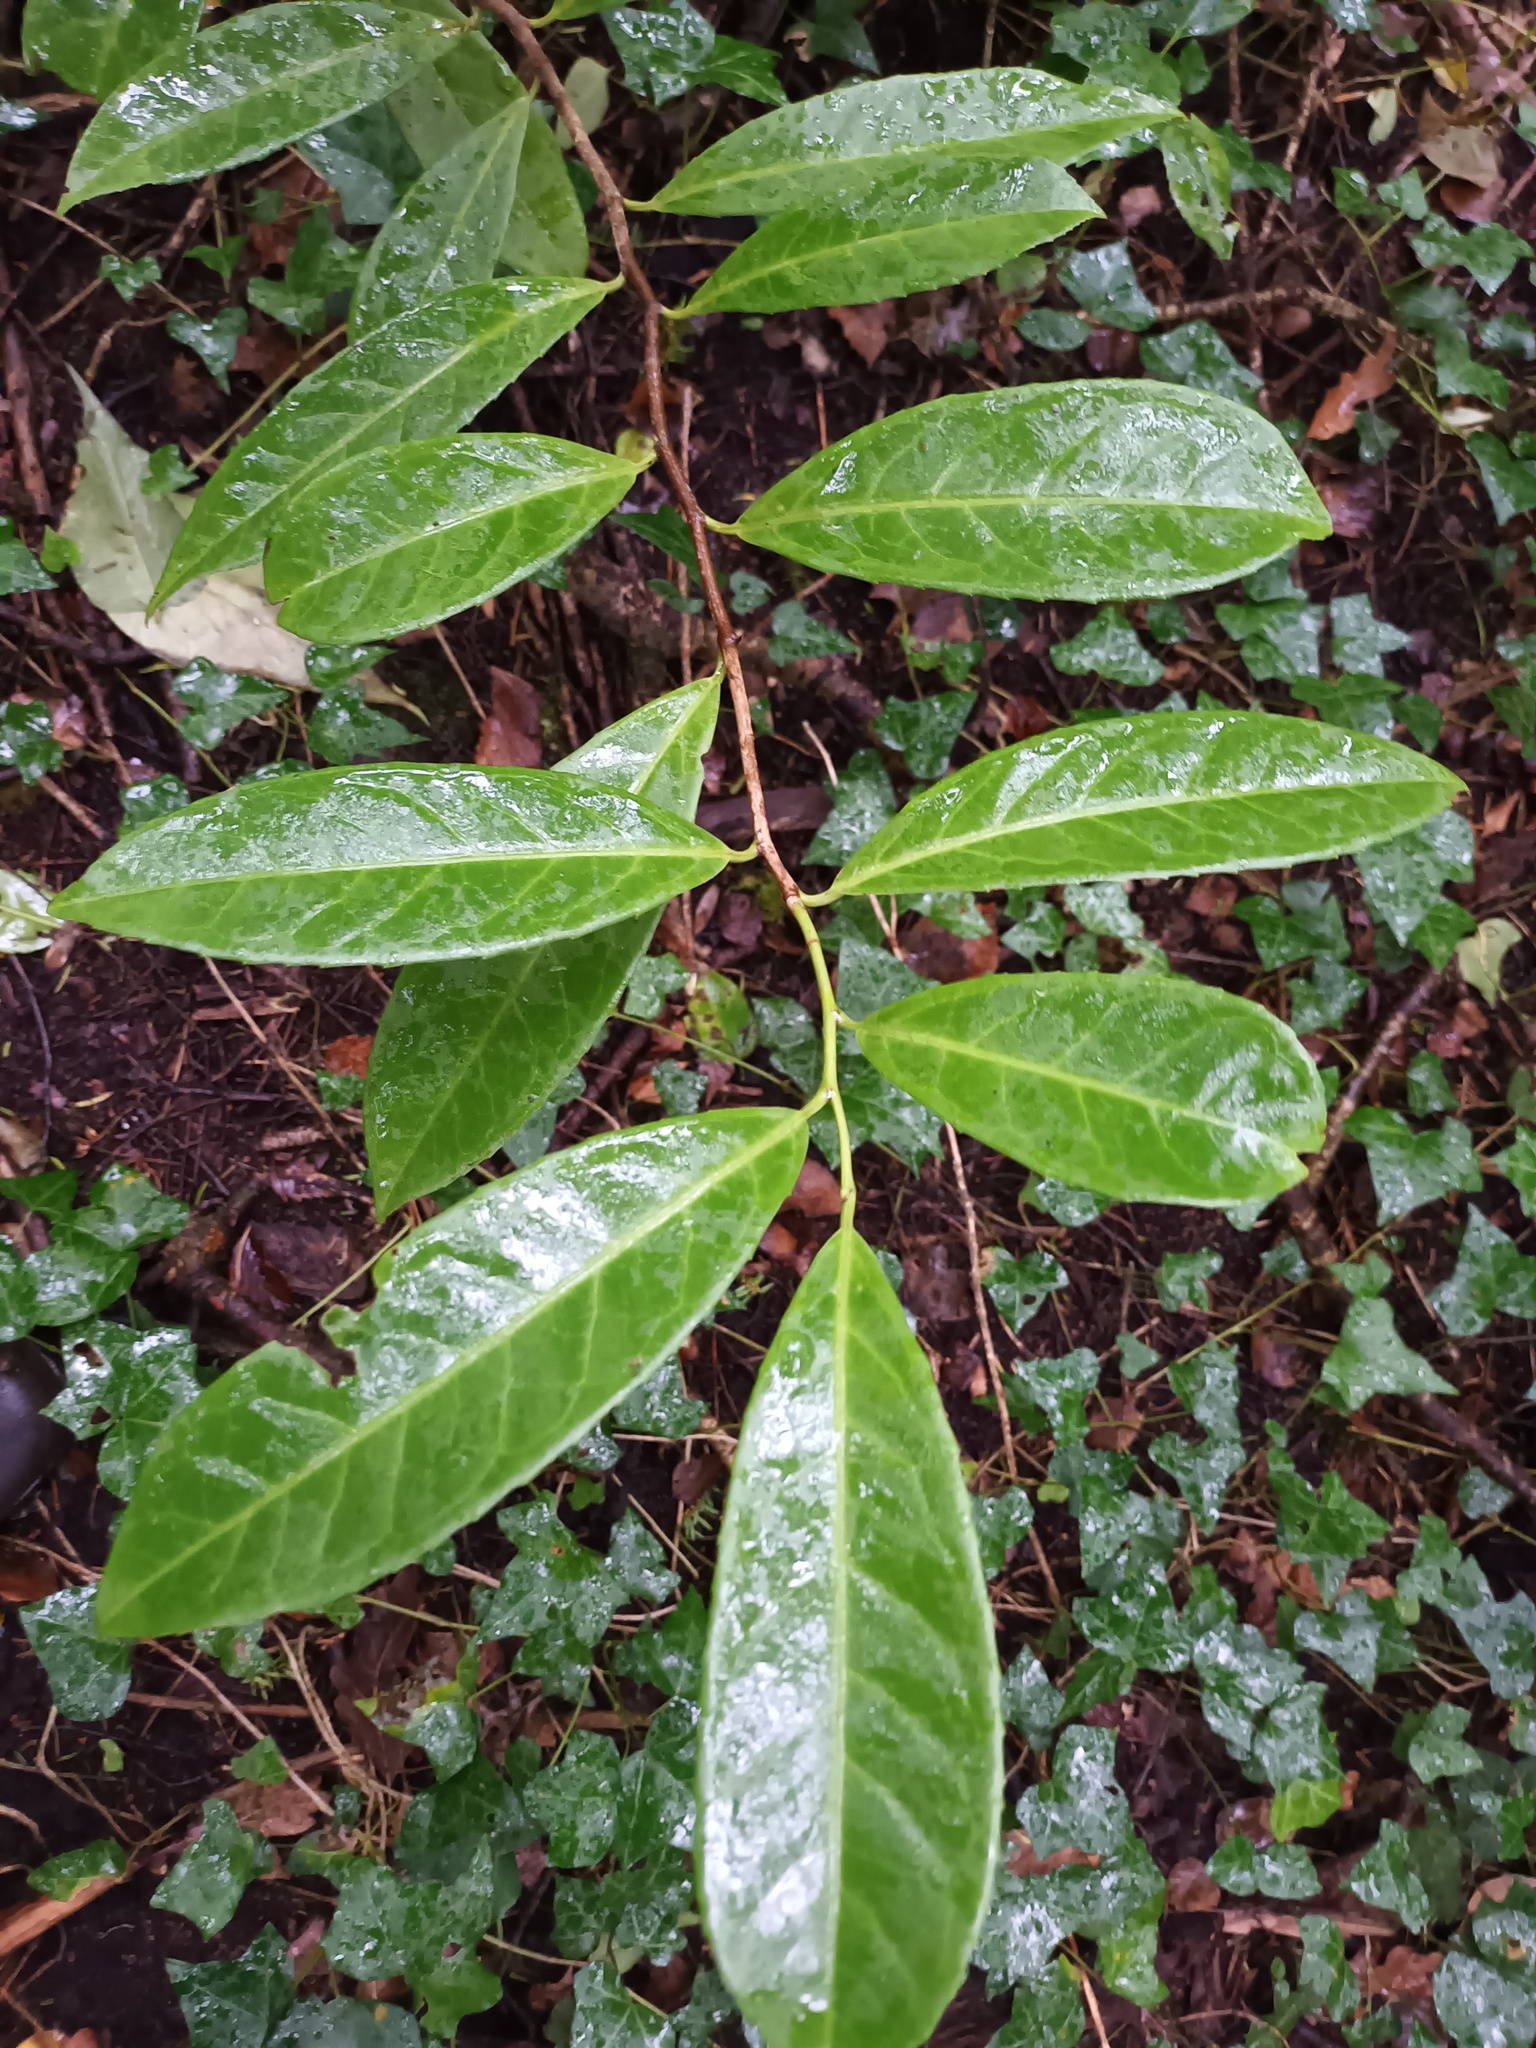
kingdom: Plantae
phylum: Tracheophyta
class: Magnoliopsida
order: Rosales
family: Rosaceae
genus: Prunus
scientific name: Prunus laurocerasus
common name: Cherry laurel
